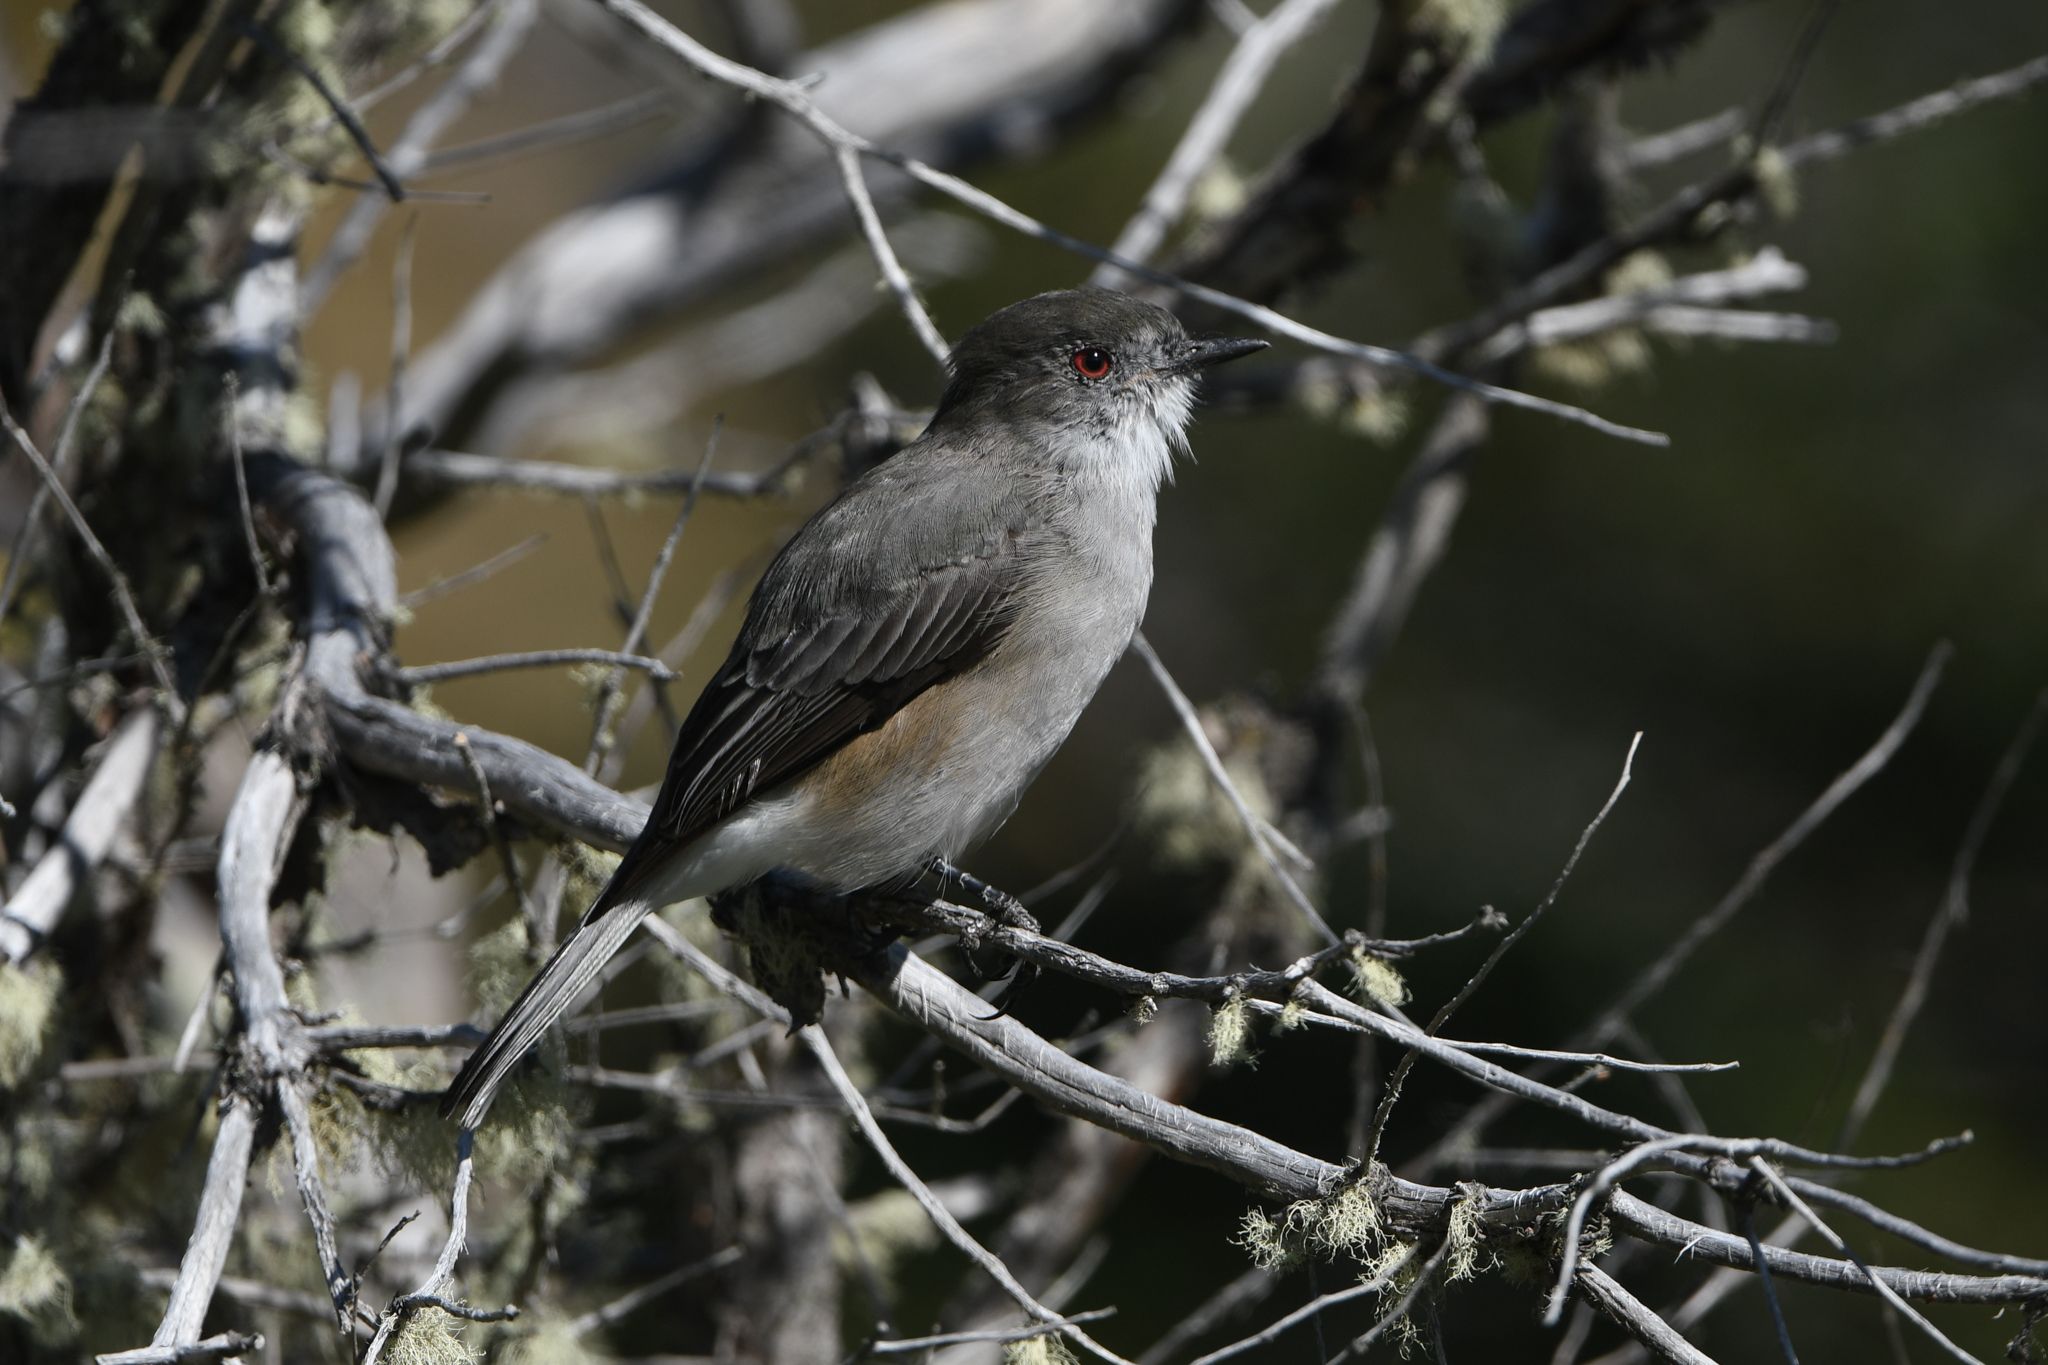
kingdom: Animalia
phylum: Chordata
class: Aves
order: Passeriformes
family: Tyrannidae
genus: Xolmis
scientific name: Xolmis pyrope
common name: Fire-eyed diucon
